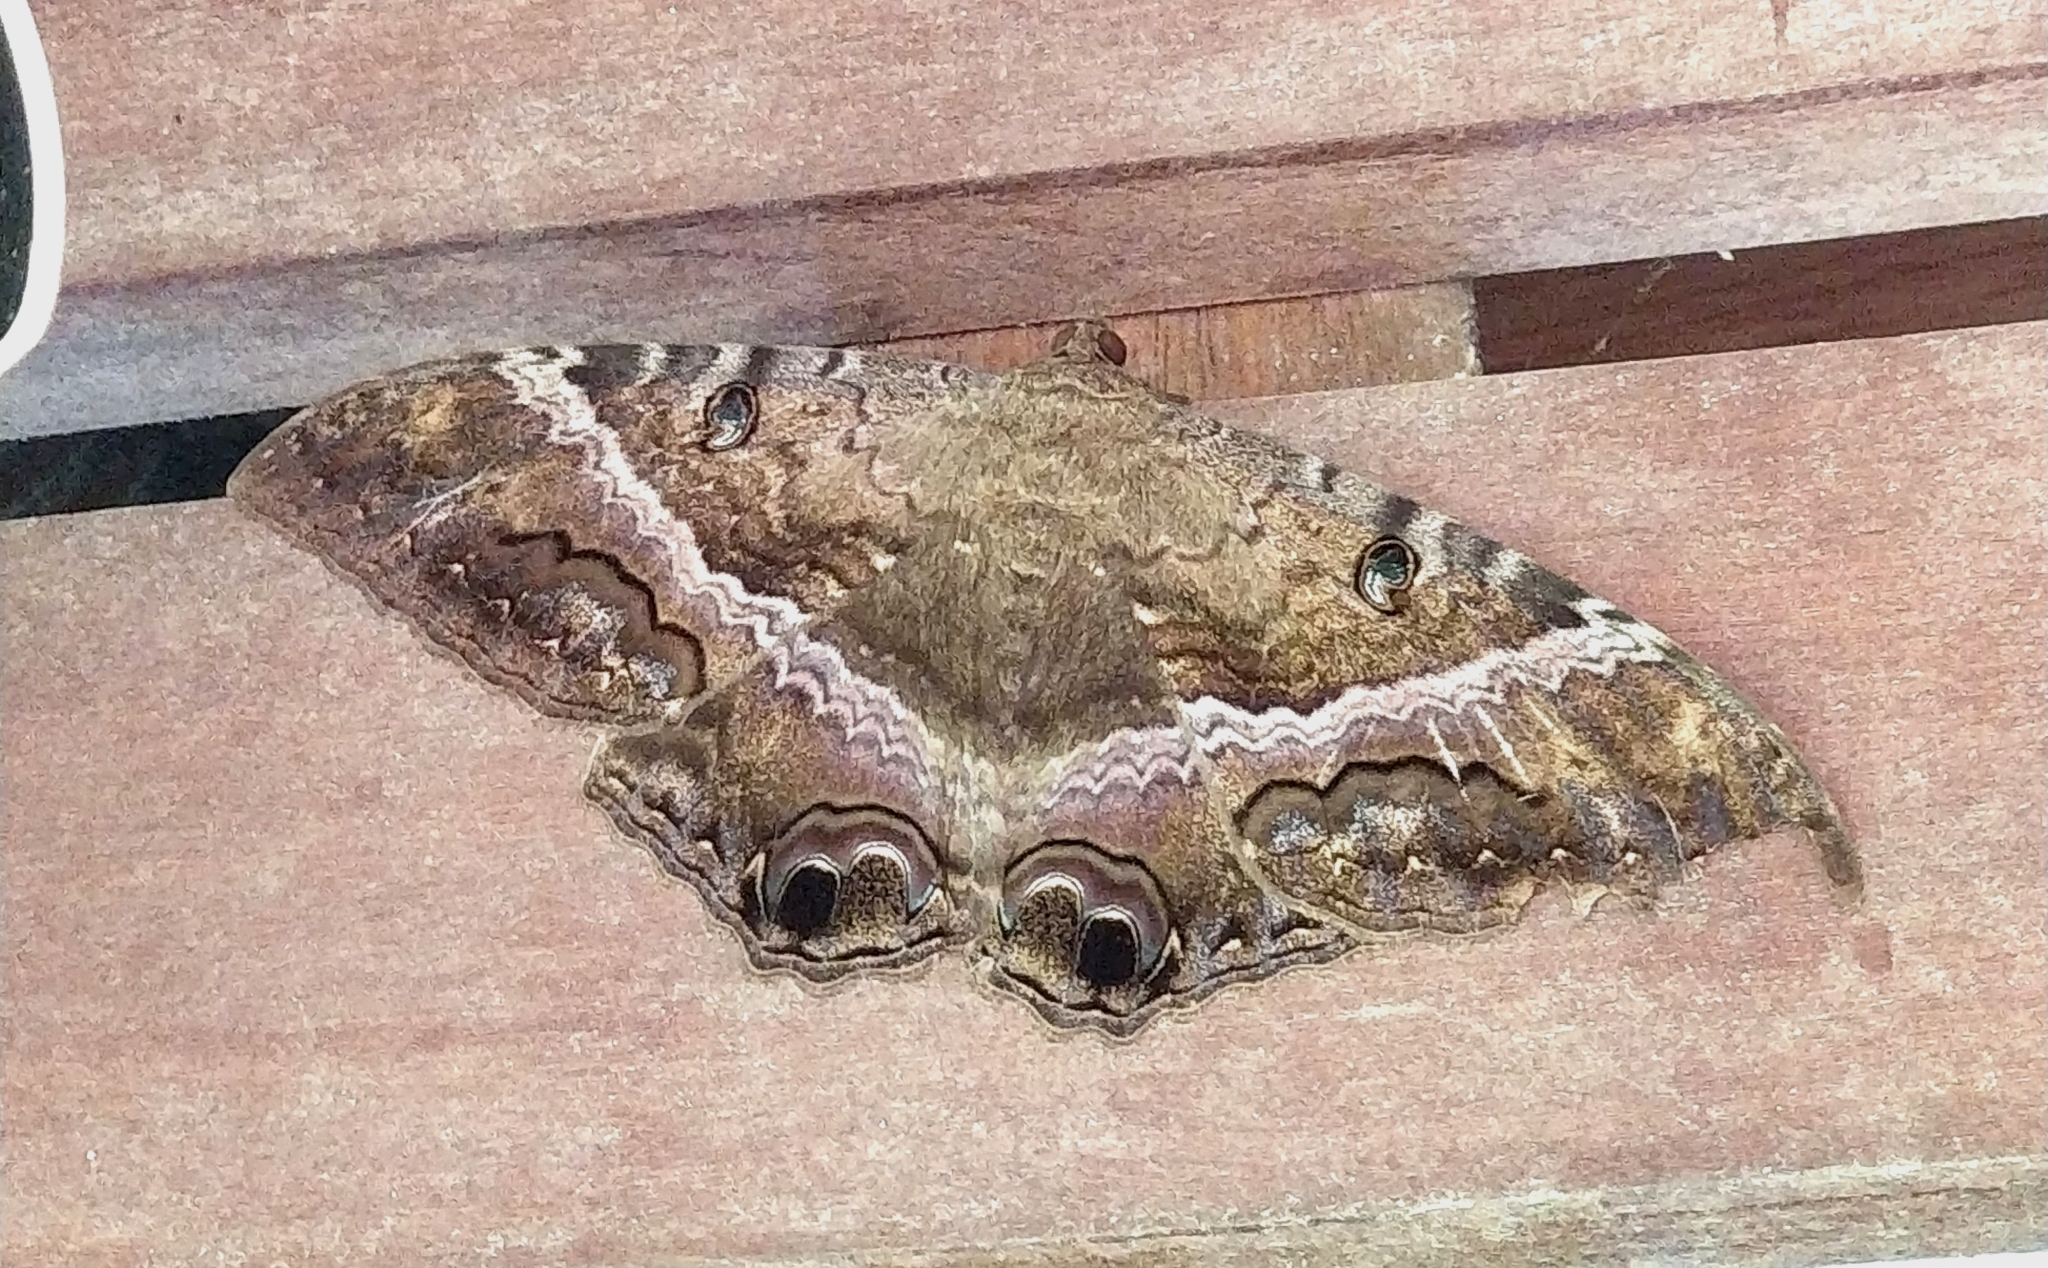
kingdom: Animalia
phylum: Arthropoda
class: Insecta
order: Lepidoptera
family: Erebidae
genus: Ascalapha
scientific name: Ascalapha odorata
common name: Black witch
